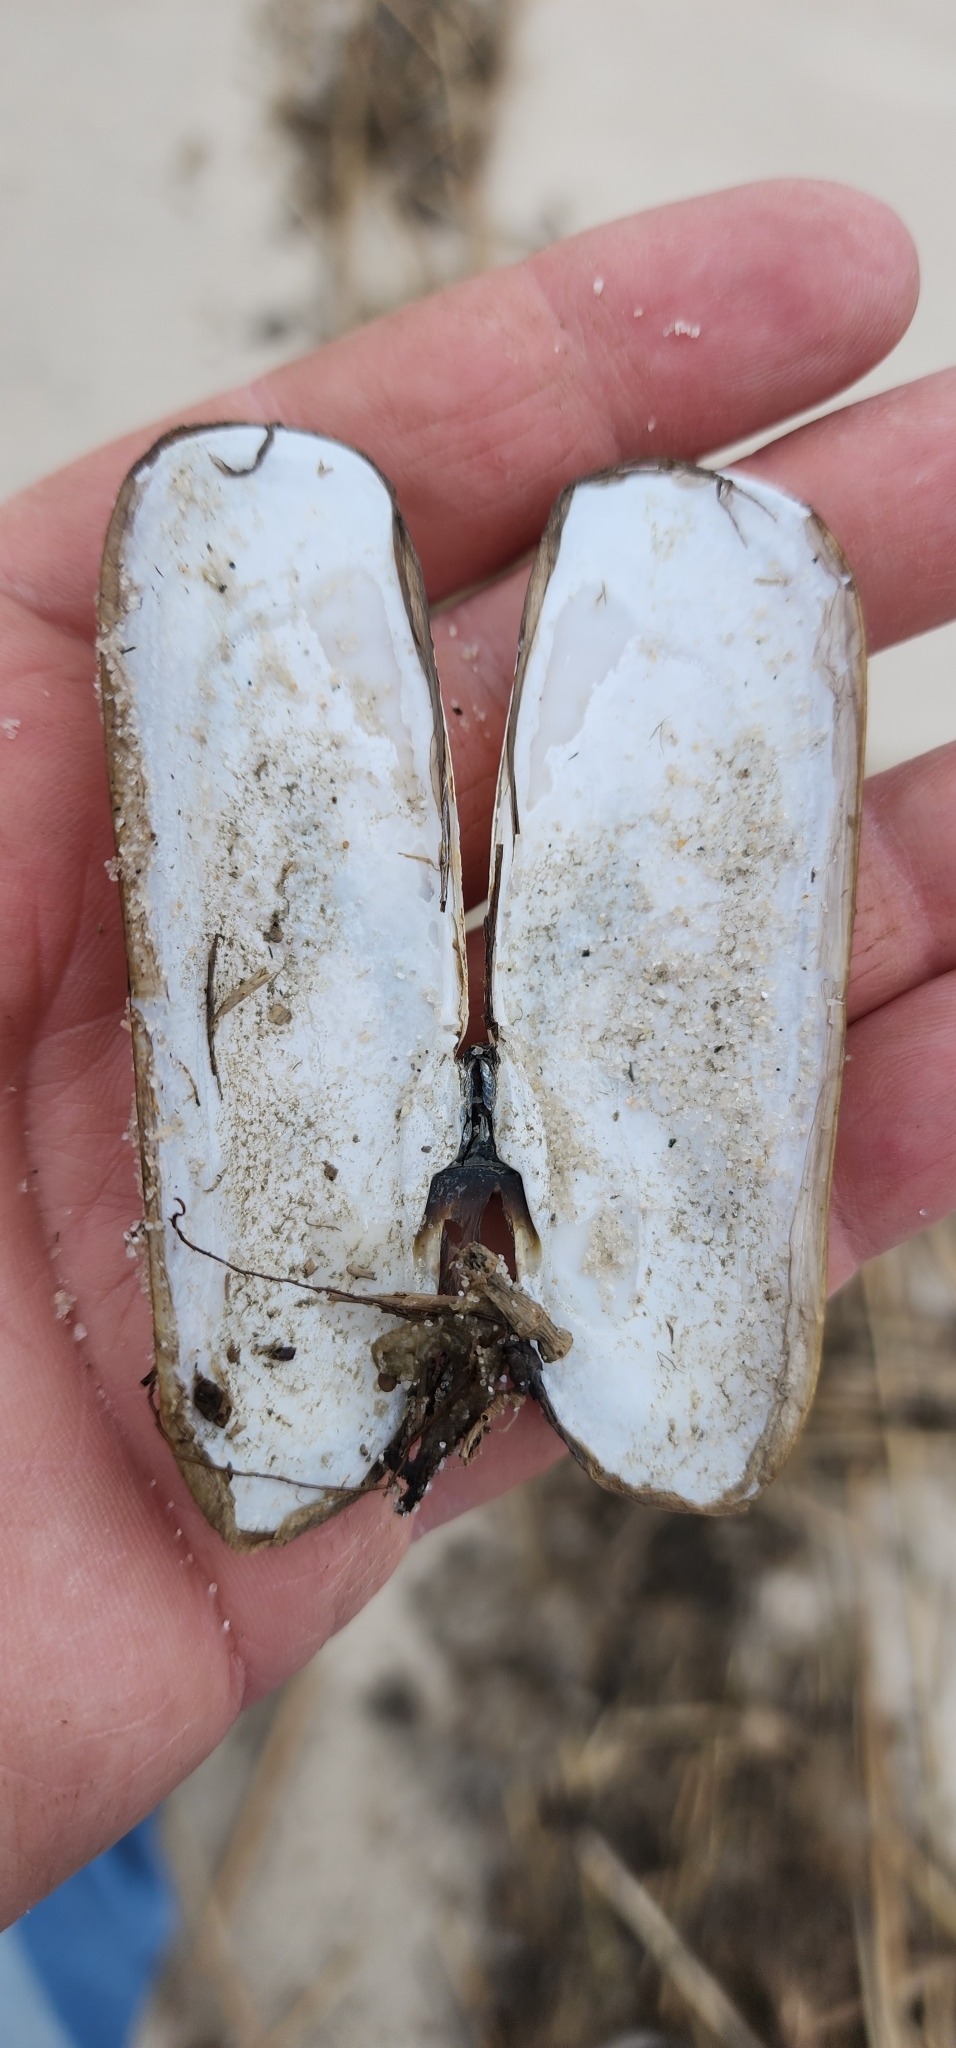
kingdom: Animalia
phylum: Mollusca
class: Bivalvia
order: Cardiida
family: Solecurtidae
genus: Tagelus
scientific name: Tagelus plebeius
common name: Stout tagelus
